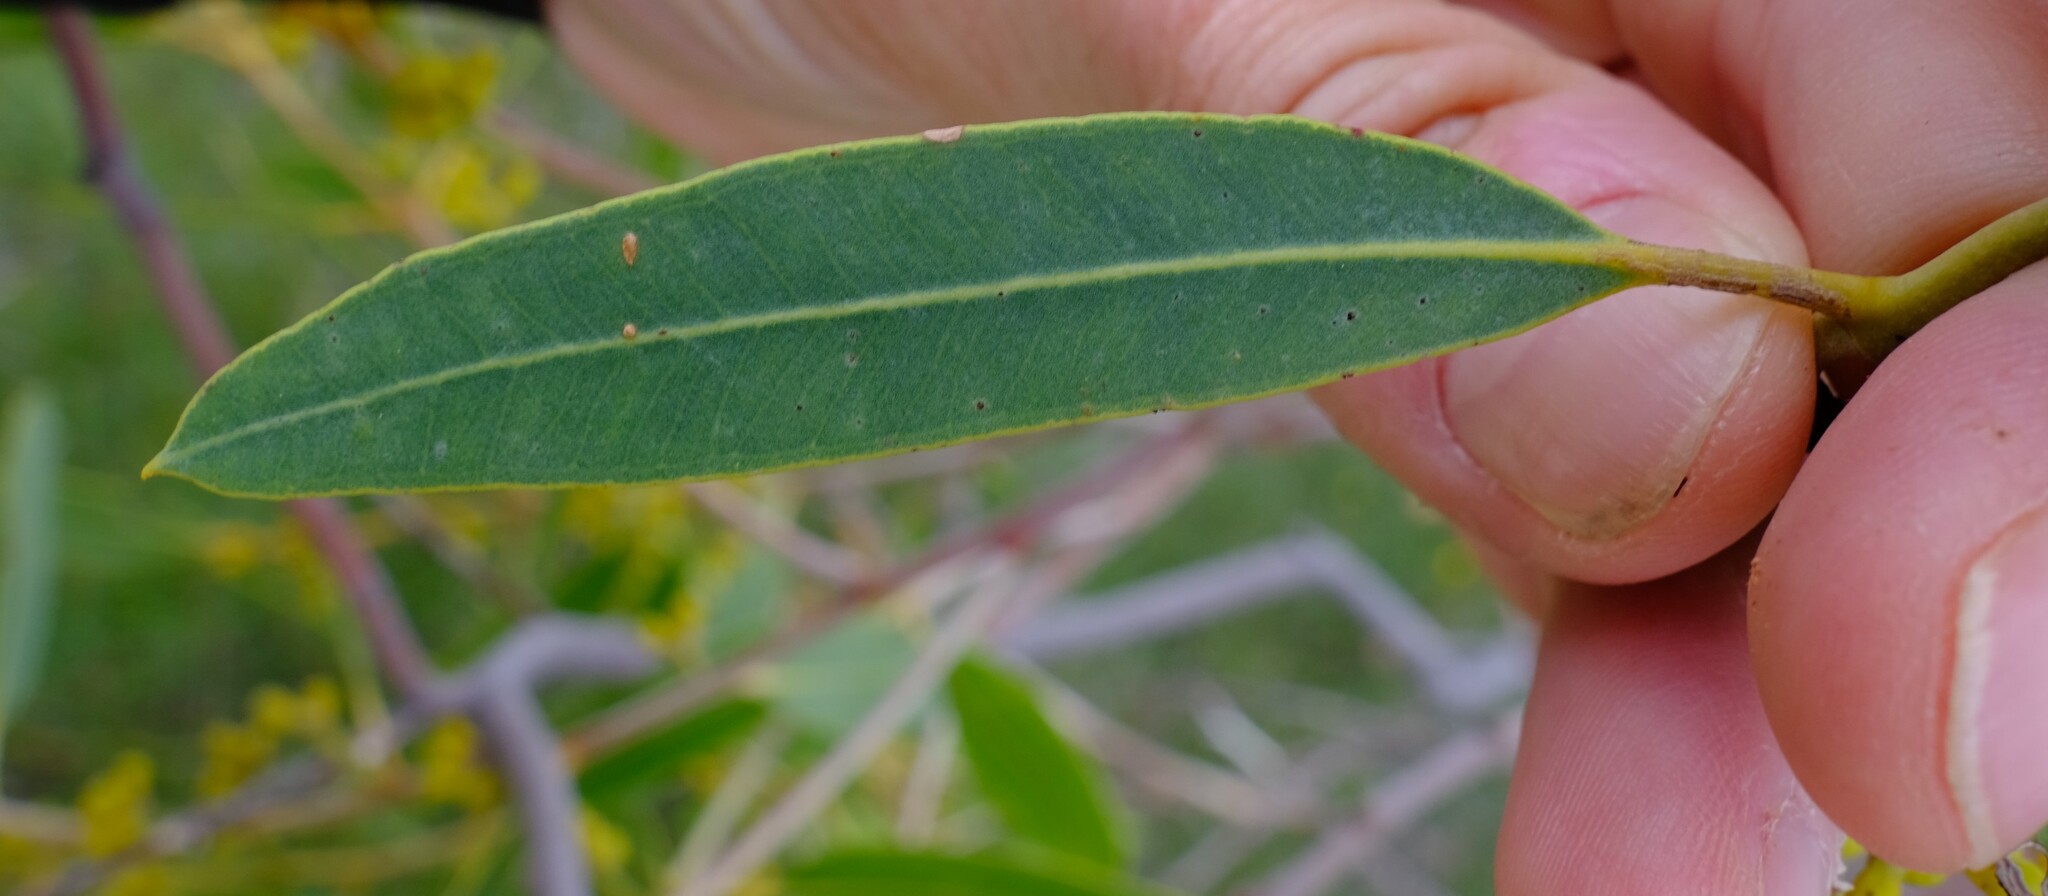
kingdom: Plantae
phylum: Tracheophyta
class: Magnoliopsida
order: Myrtales
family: Myrtaceae
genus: Eucalyptus
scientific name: Eucalyptus todtiana
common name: Coastal blackbutt
